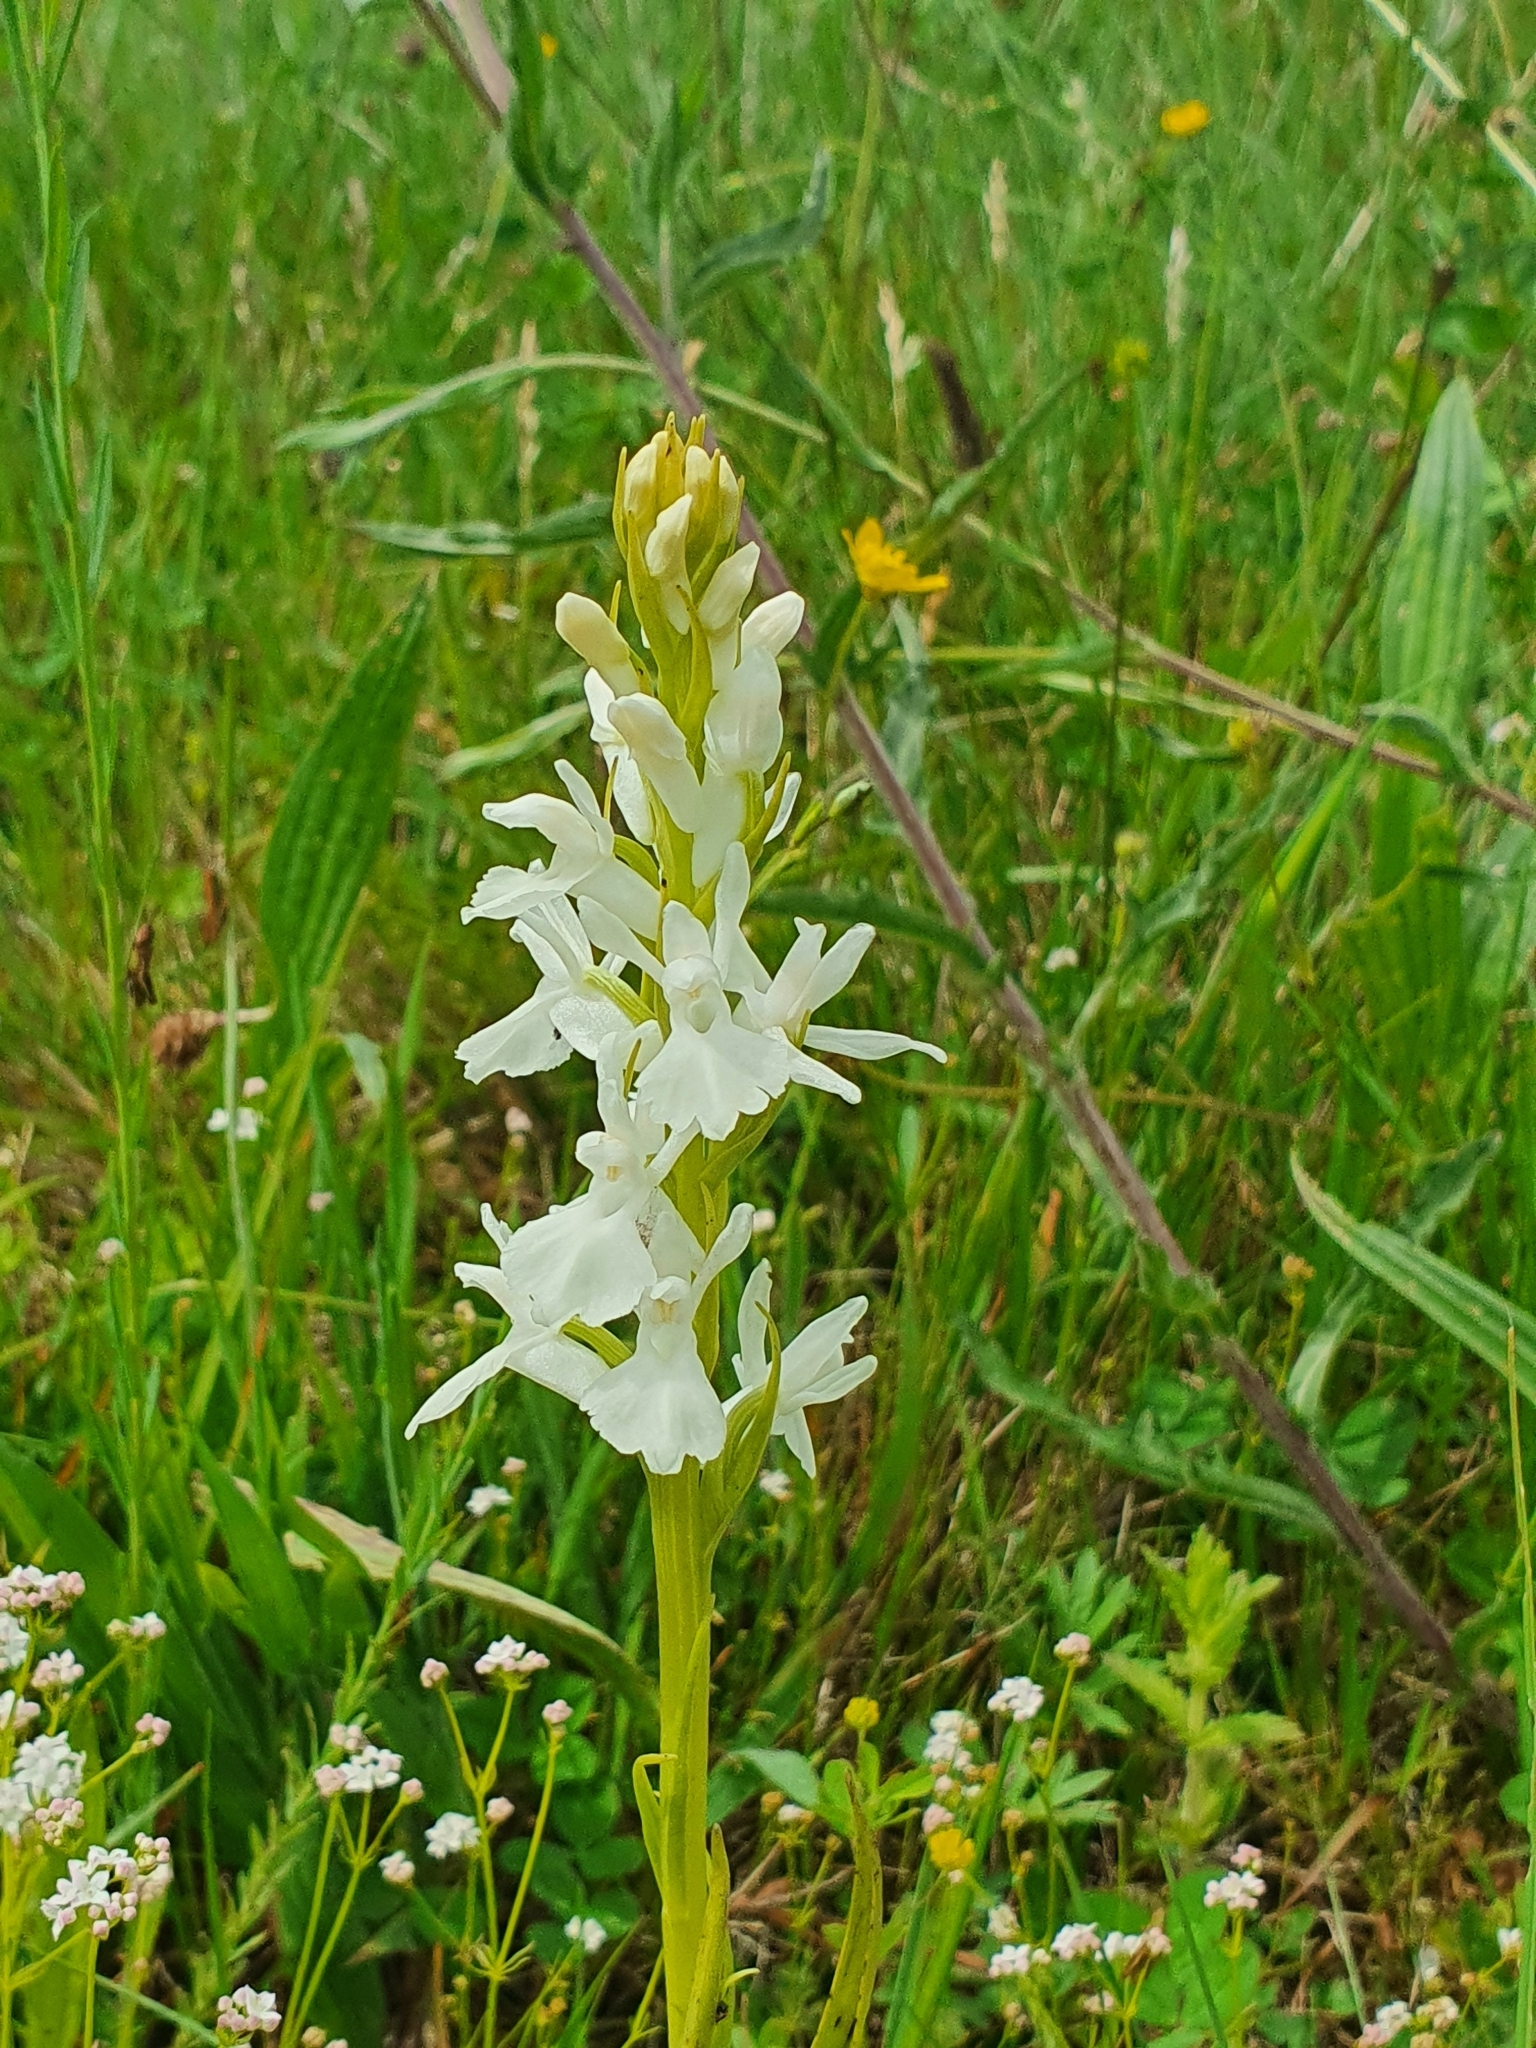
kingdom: Plantae
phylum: Tracheophyta
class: Liliopsida
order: Asparagales
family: Orchidaceae
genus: Dactylorhiza
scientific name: Dactylorhiza elata
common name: Stately dactylorhiza
